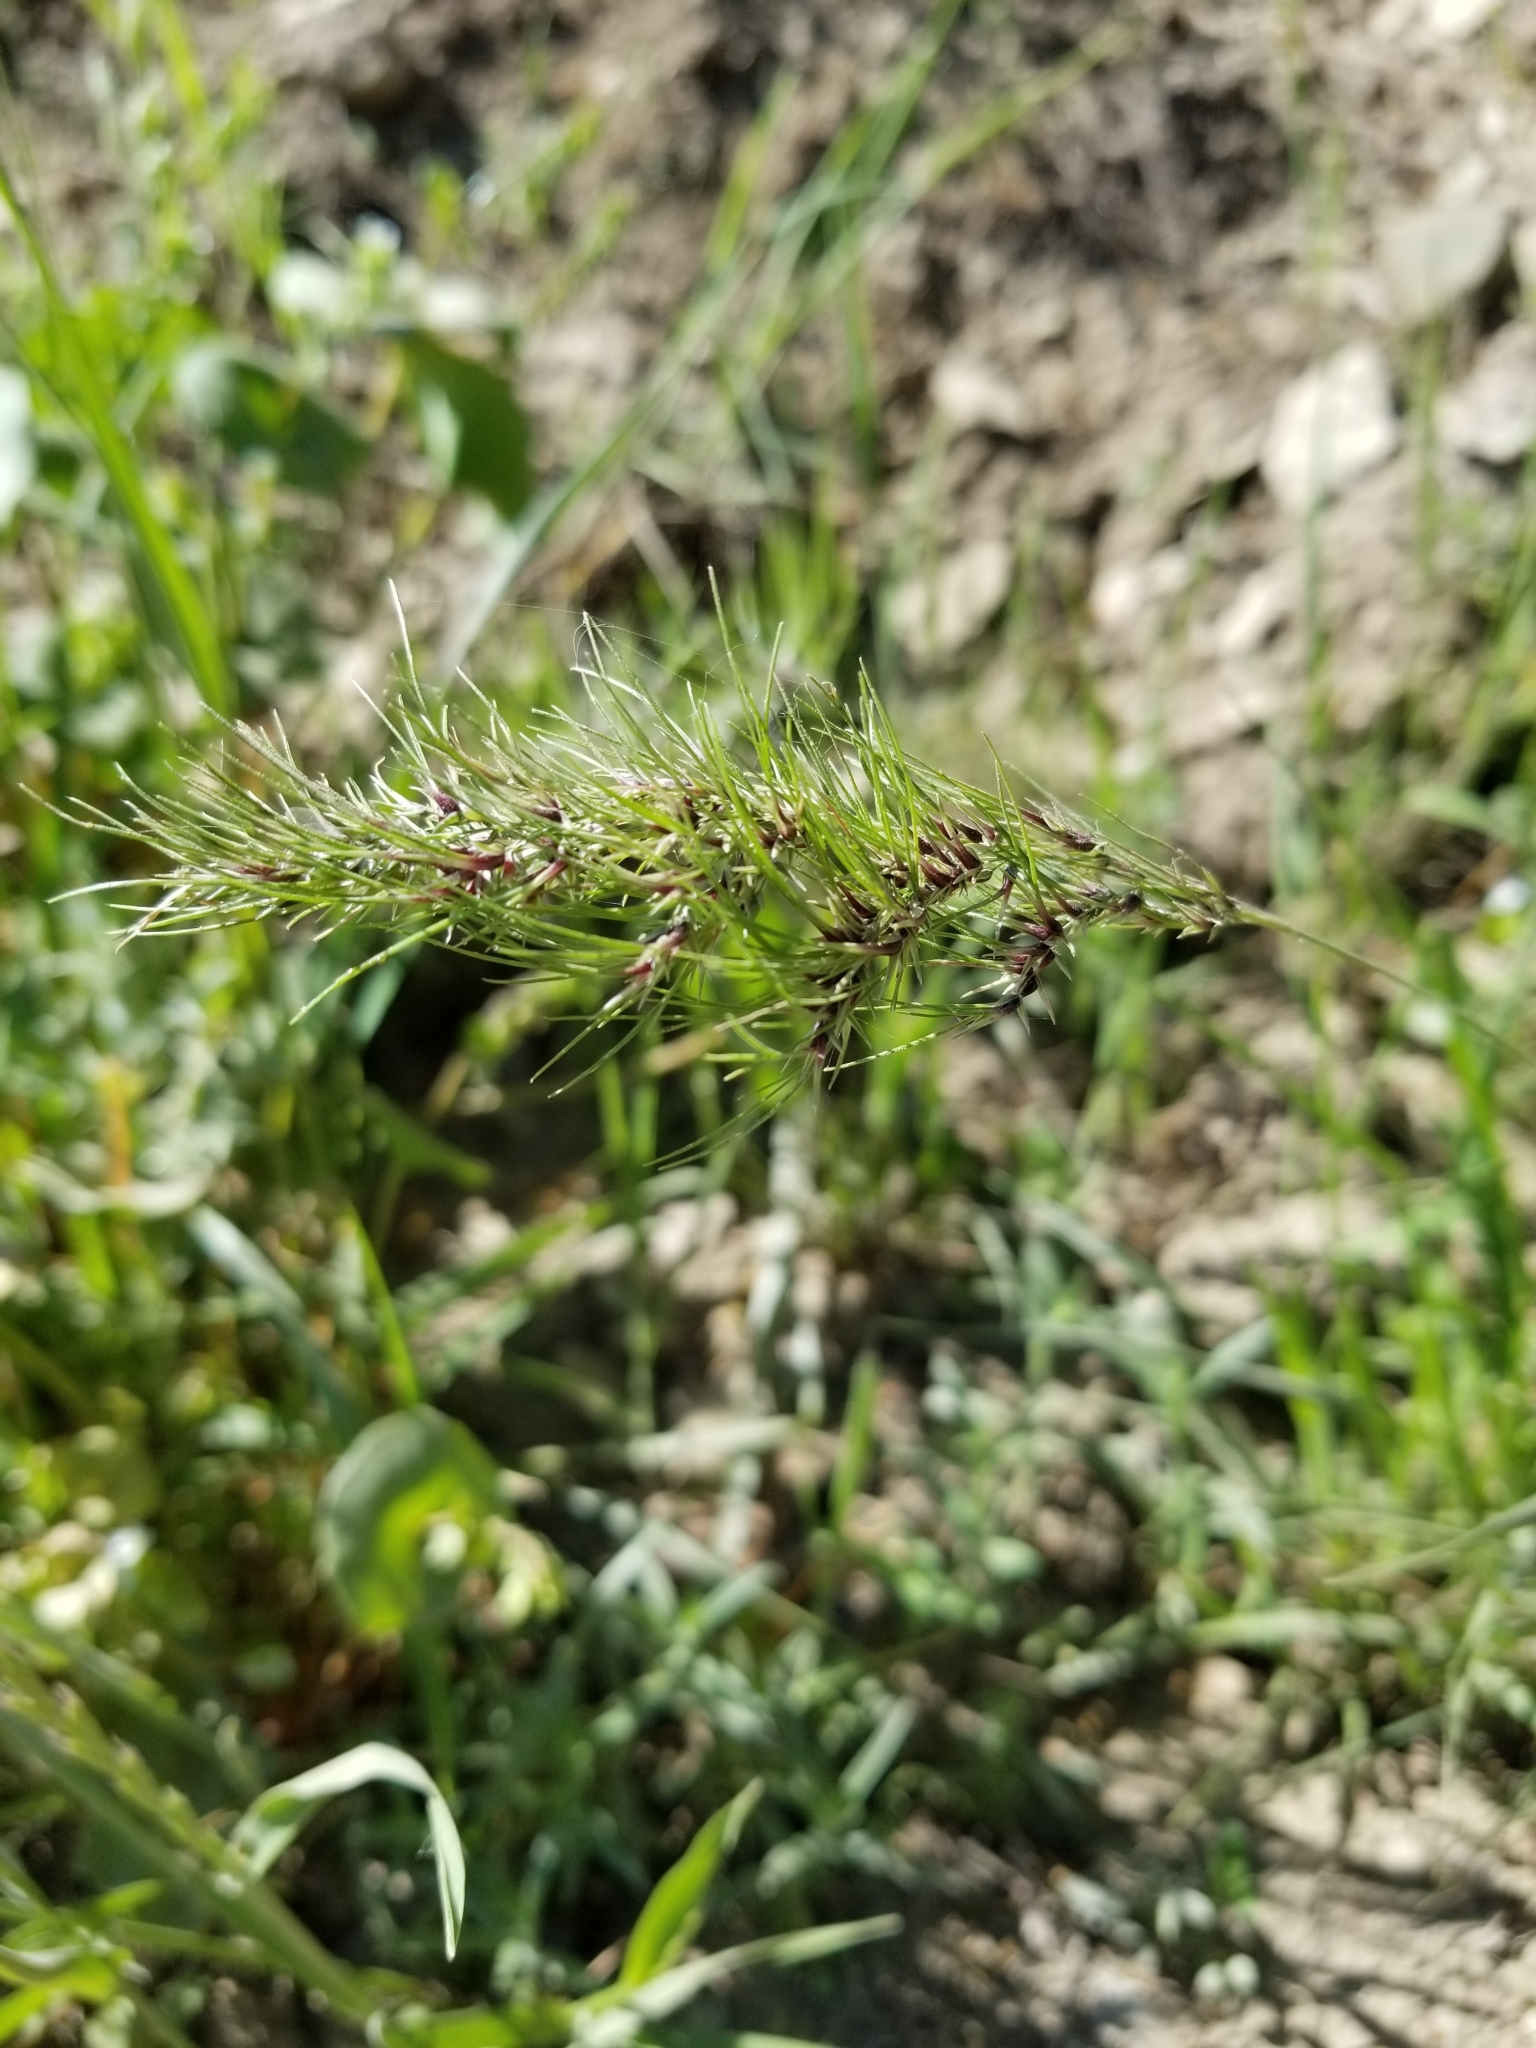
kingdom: Plantae
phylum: Tracheophyta
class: Liliopsida
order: Poales
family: Poaceae
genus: Poa
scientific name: Poa bulbosa
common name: Bulbous bluegrass
